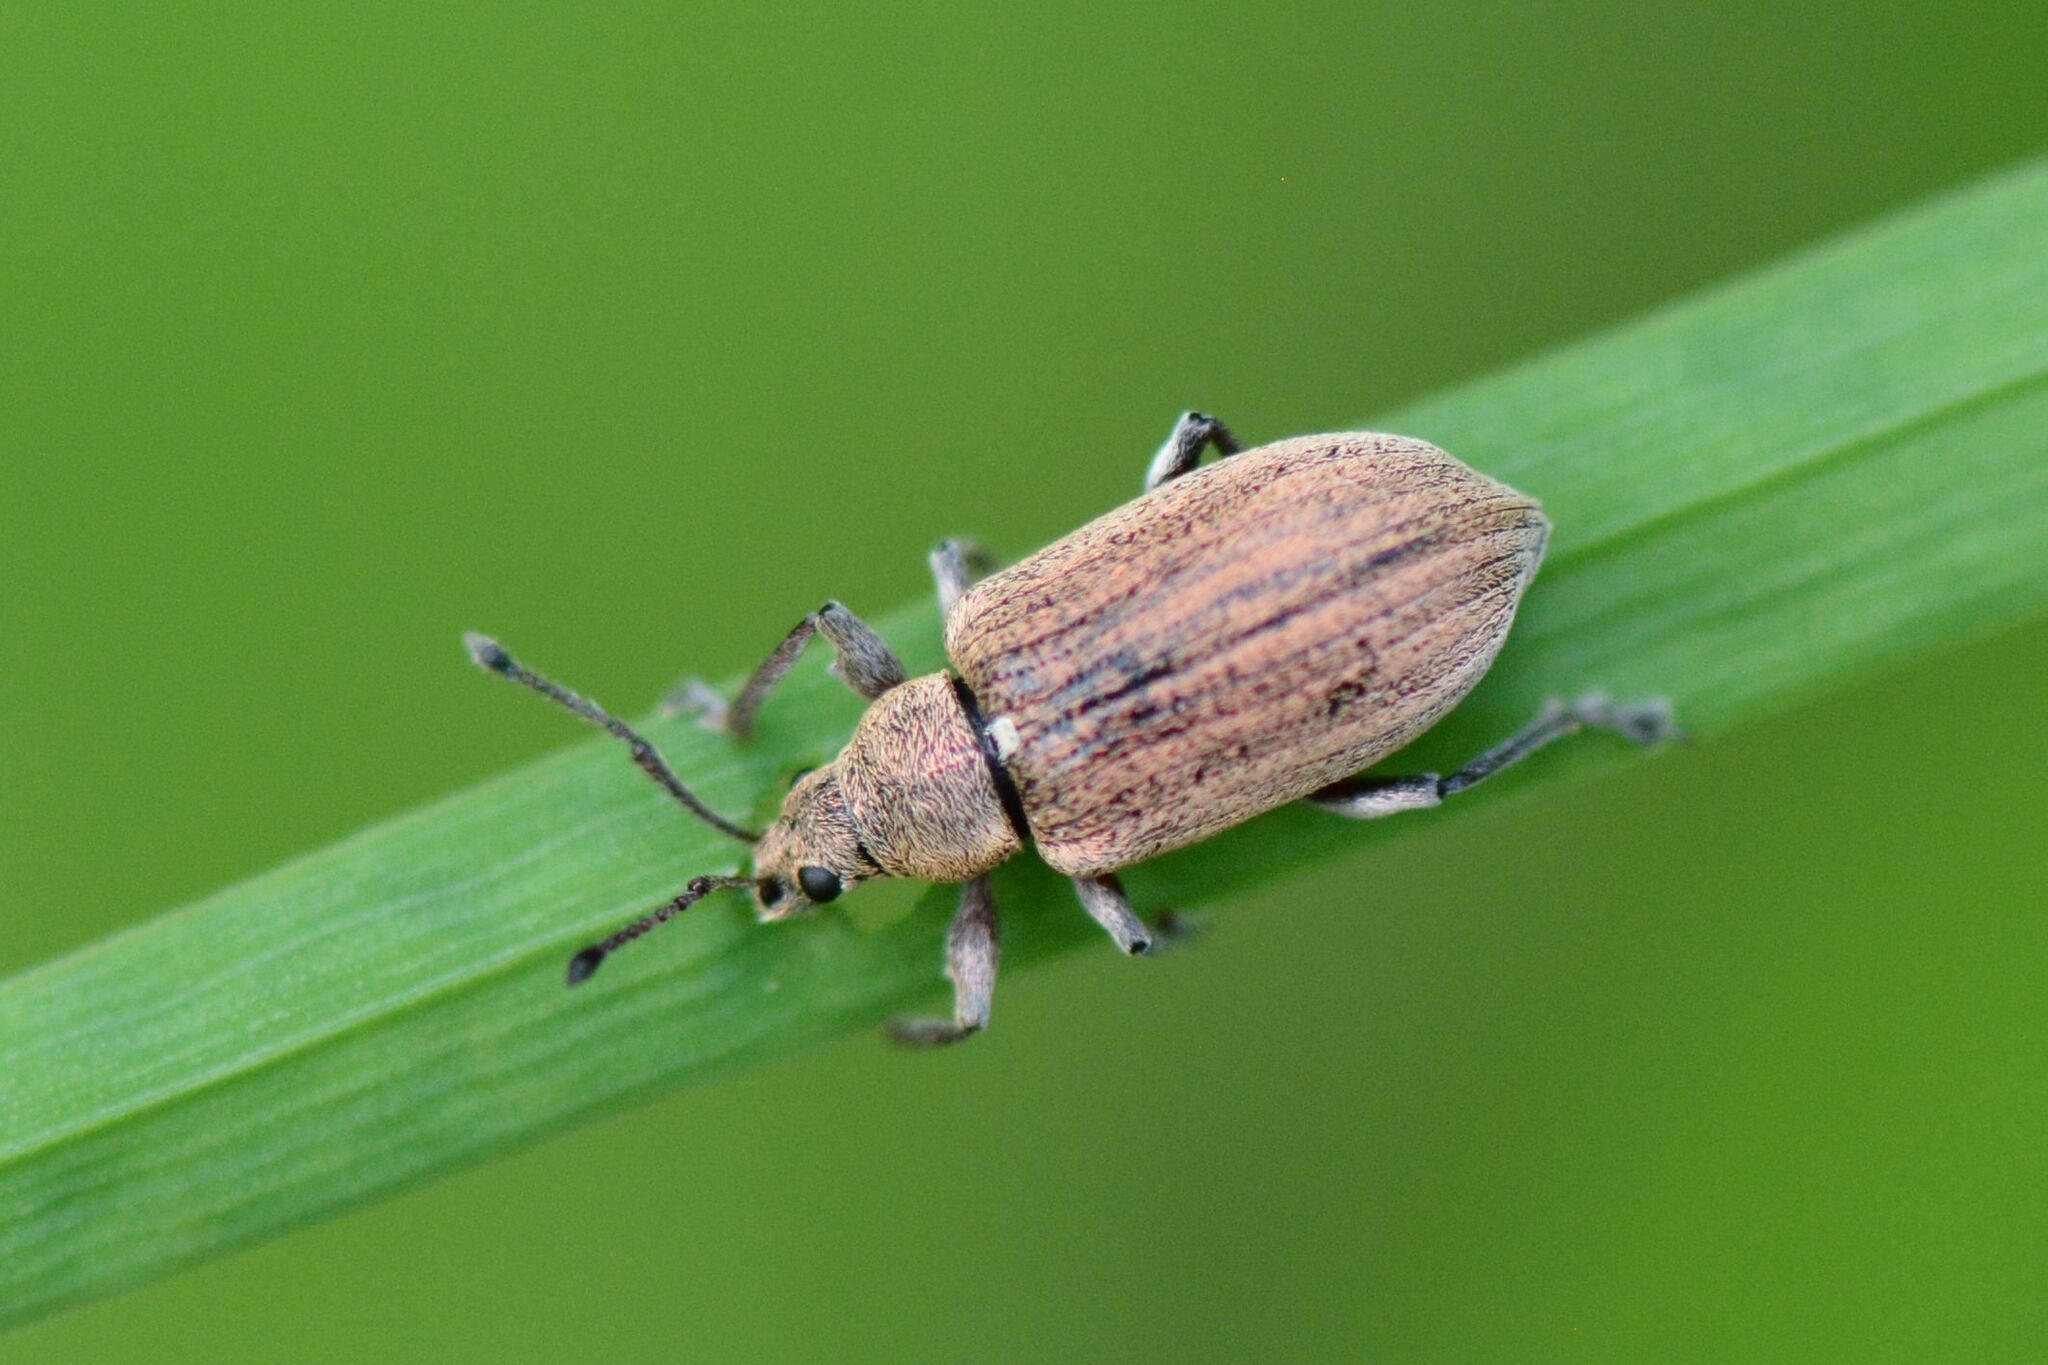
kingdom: Animalia
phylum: Arthropoda
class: Insecta
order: Coleoptera
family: Curculionidae
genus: Phyllobius
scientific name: Phyllobius pyri
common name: Common leaf weevil
